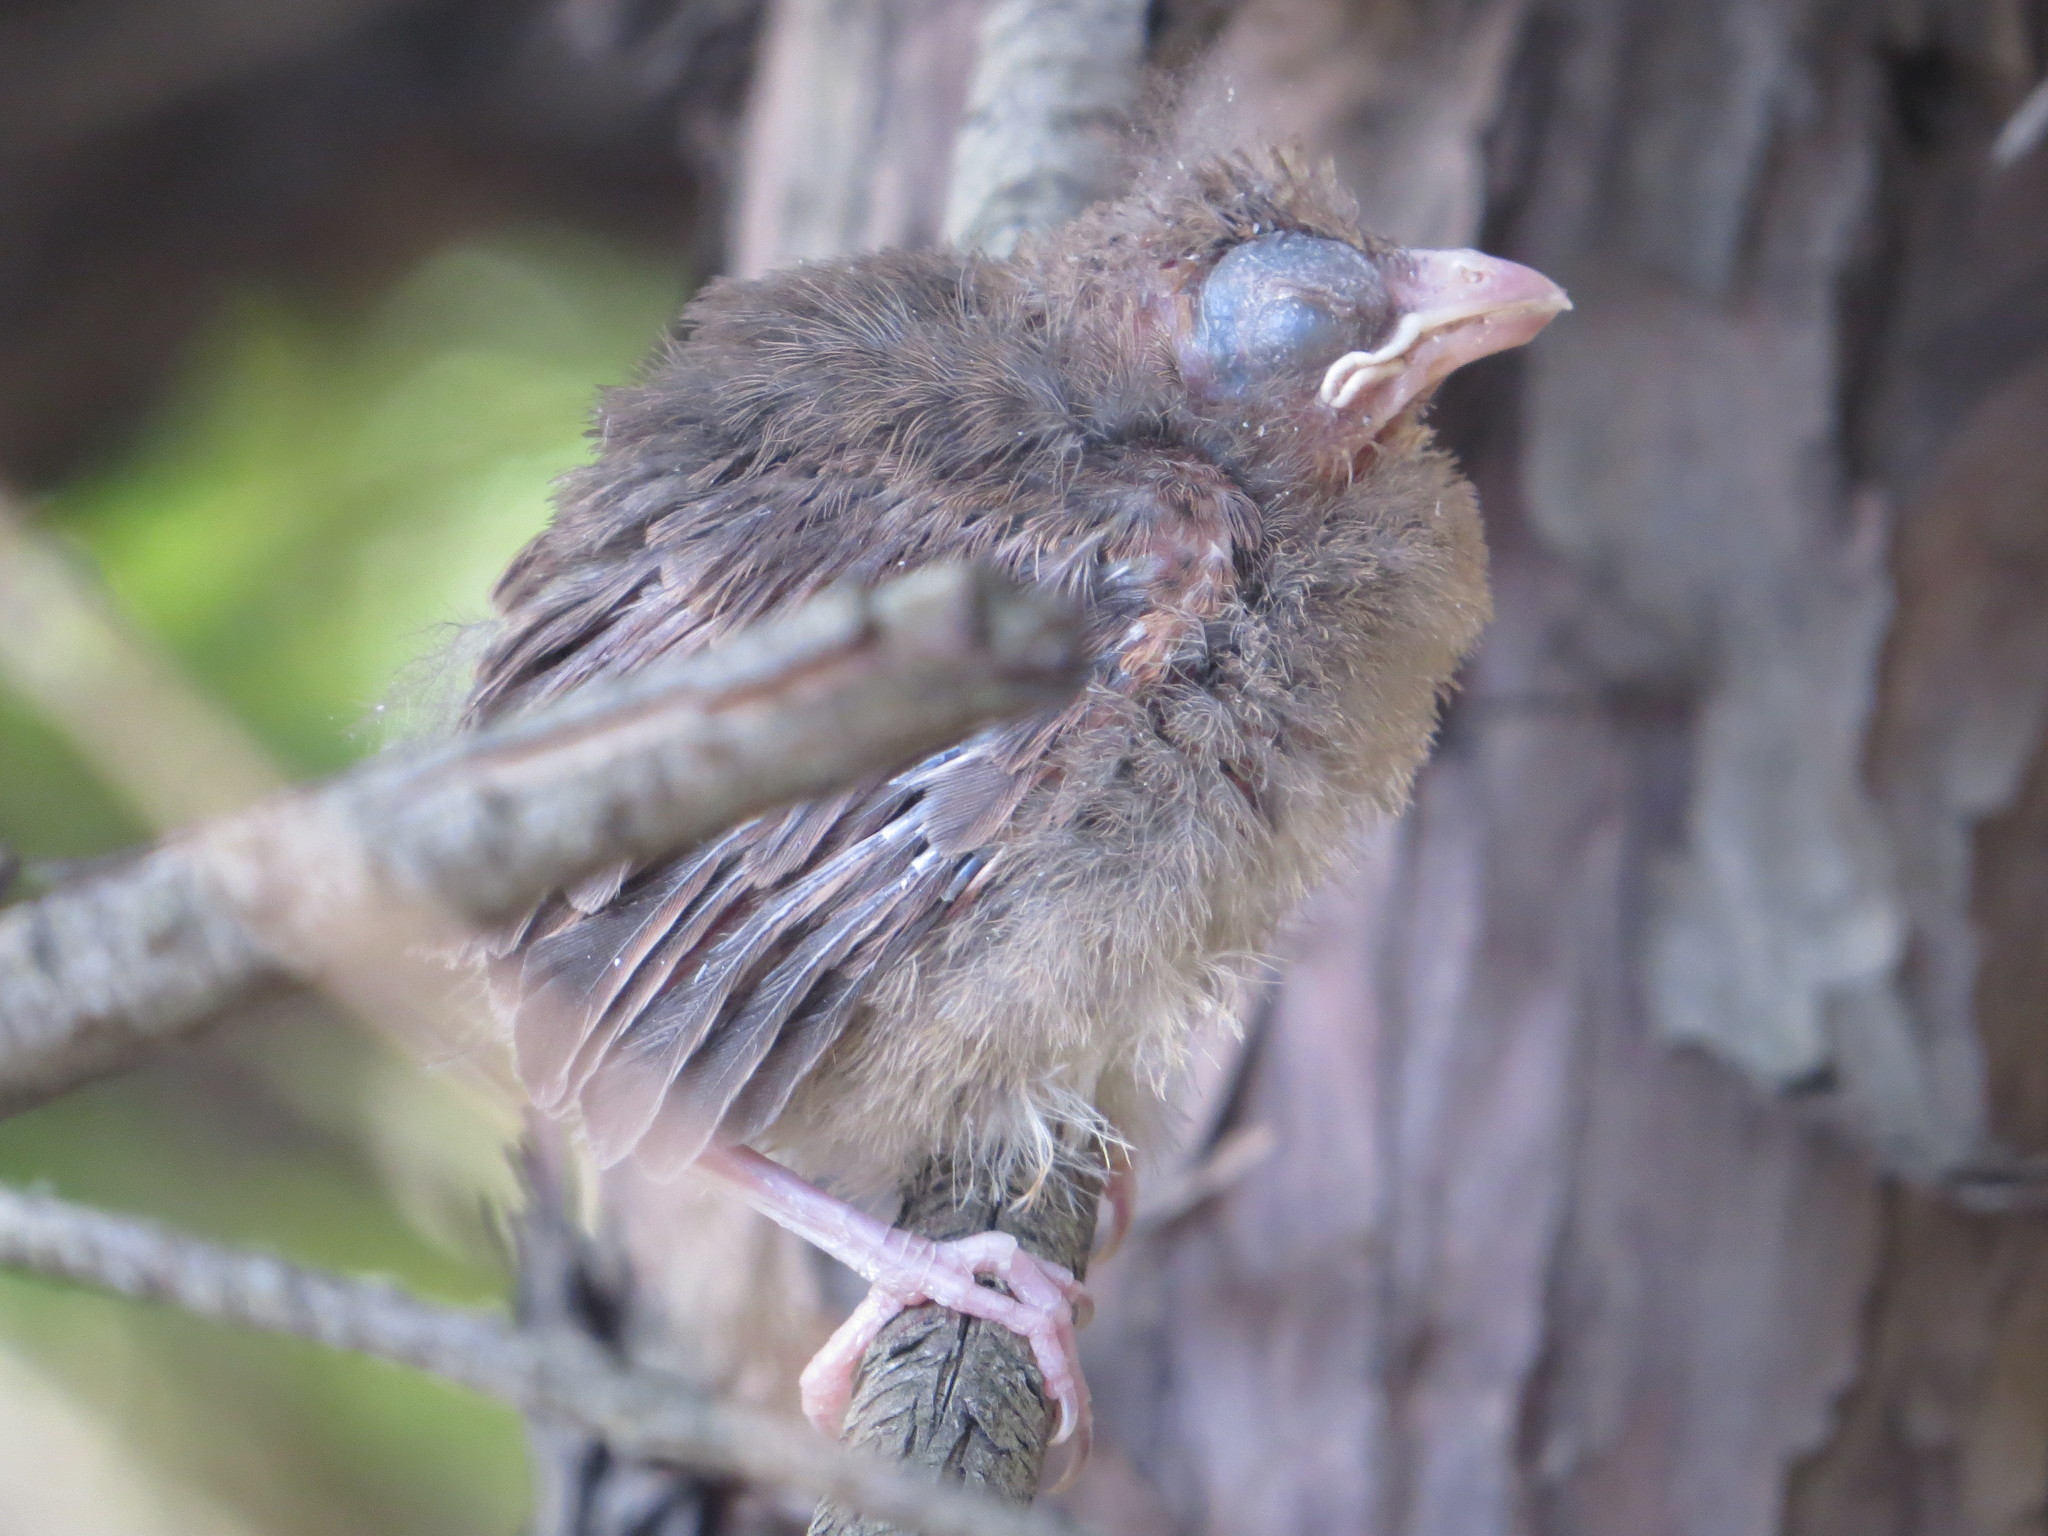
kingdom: Animalia
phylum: Chordata
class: Aves
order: Passeriformes
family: Cardinalidae
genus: Cardinalis
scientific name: Cardinalis cardinalis
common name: Northern cardinal
